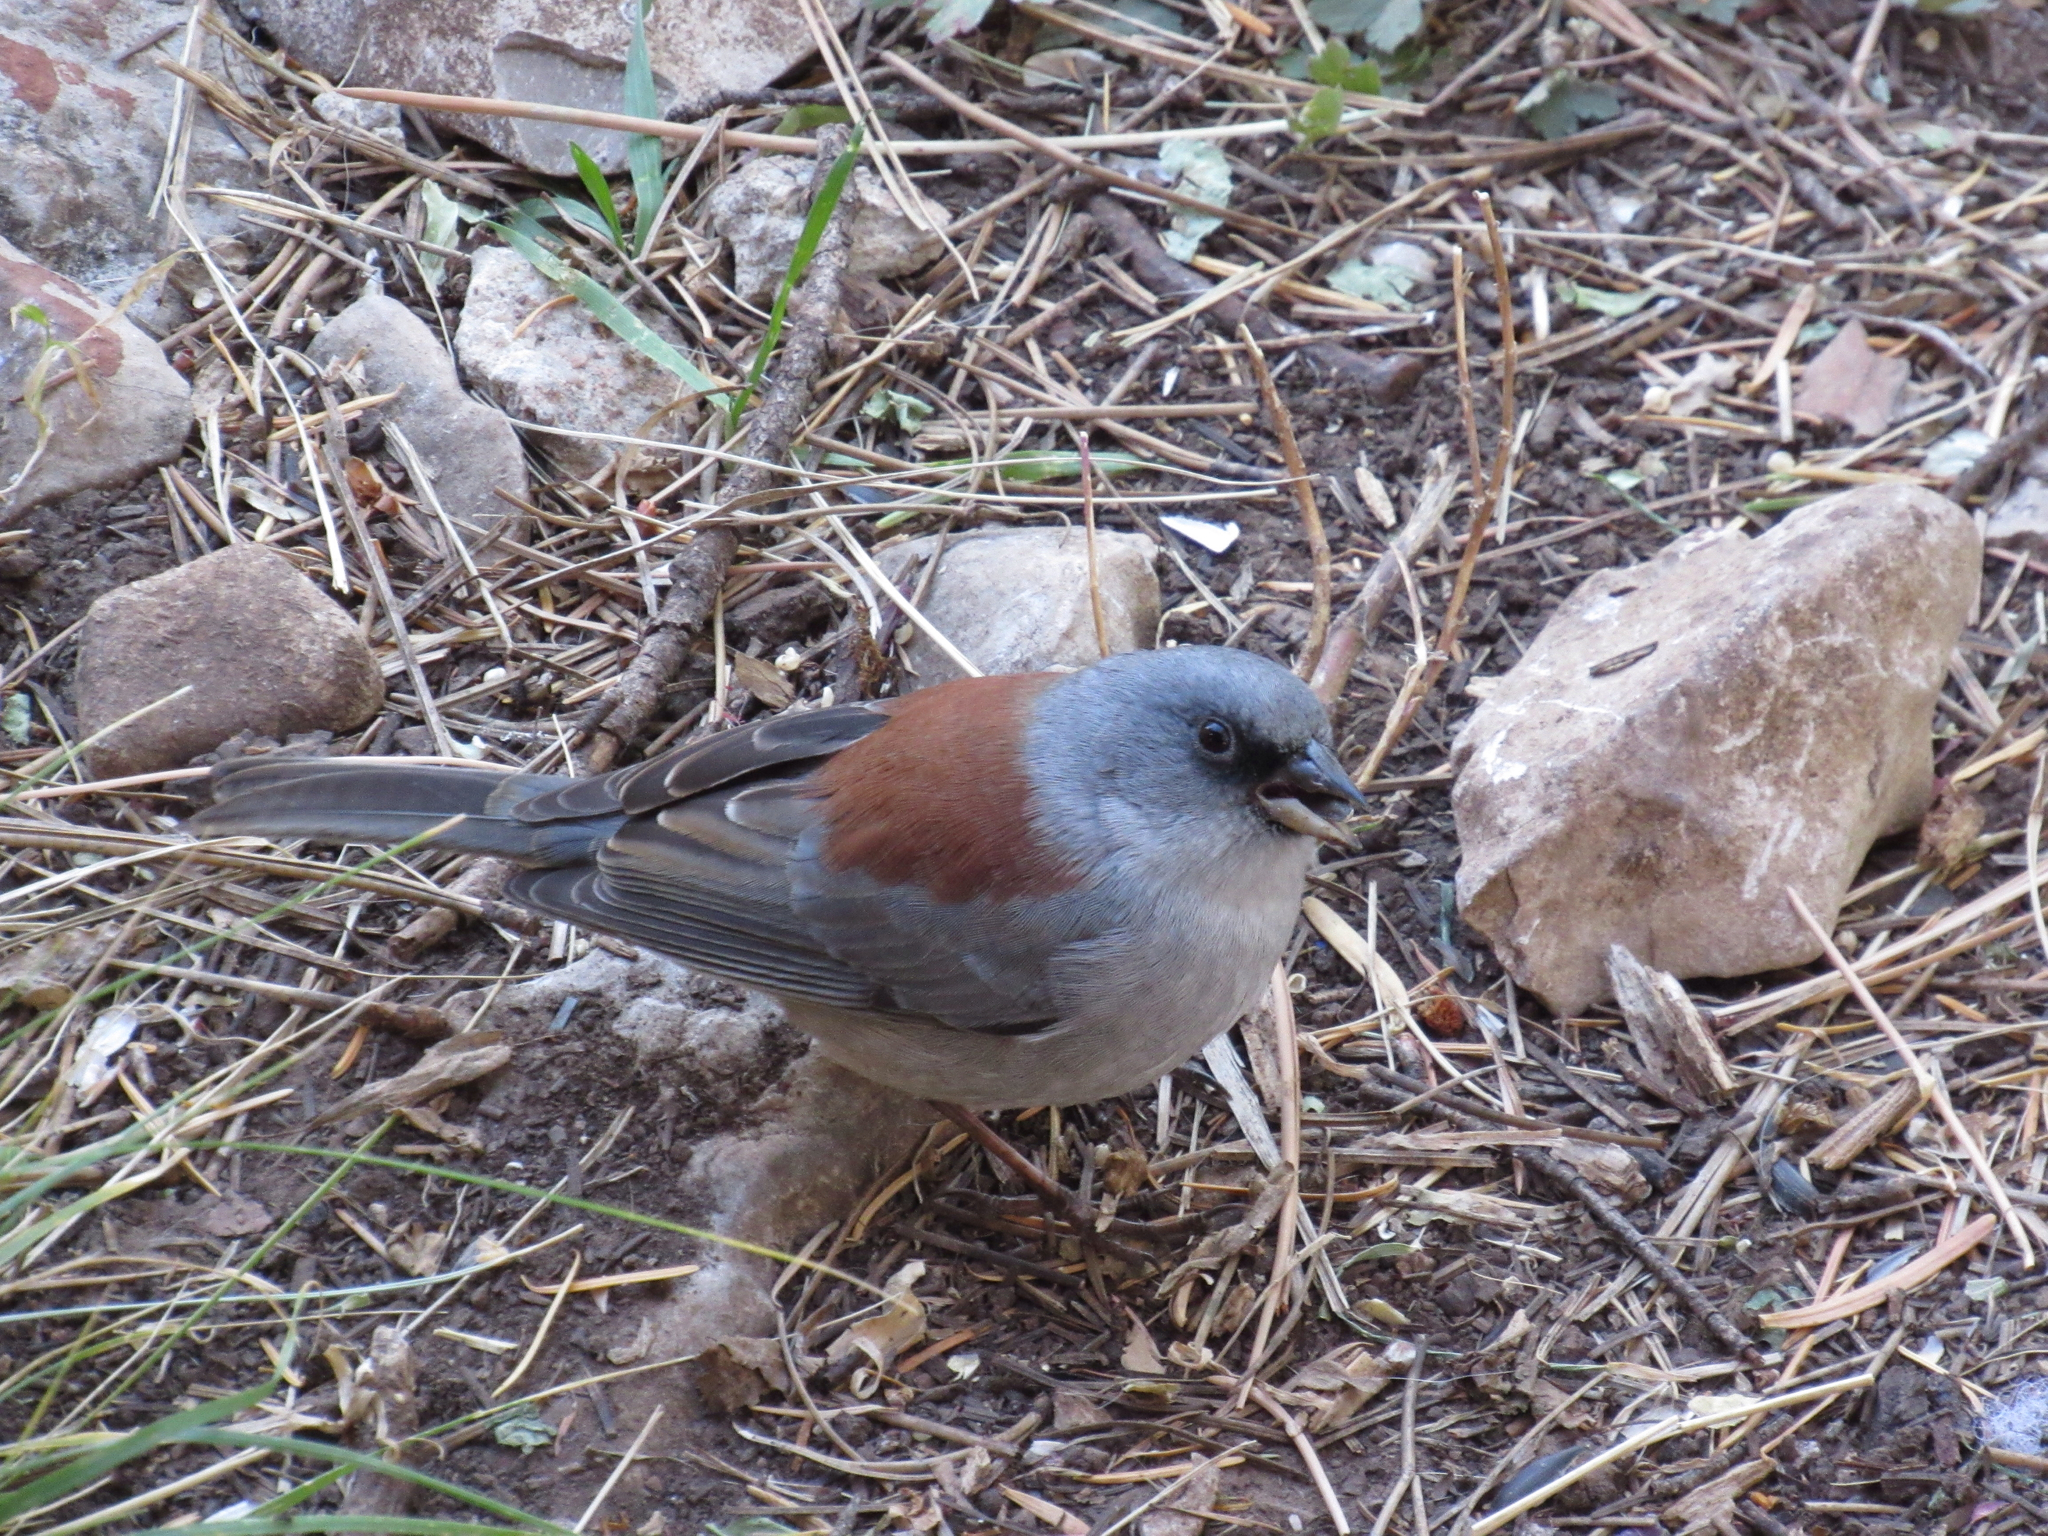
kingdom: Animalia
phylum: Chordata
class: Aves
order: Passeriformes
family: Passerellidae
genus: Junco
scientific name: Junco hyemalis
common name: Dark-eyed junco
